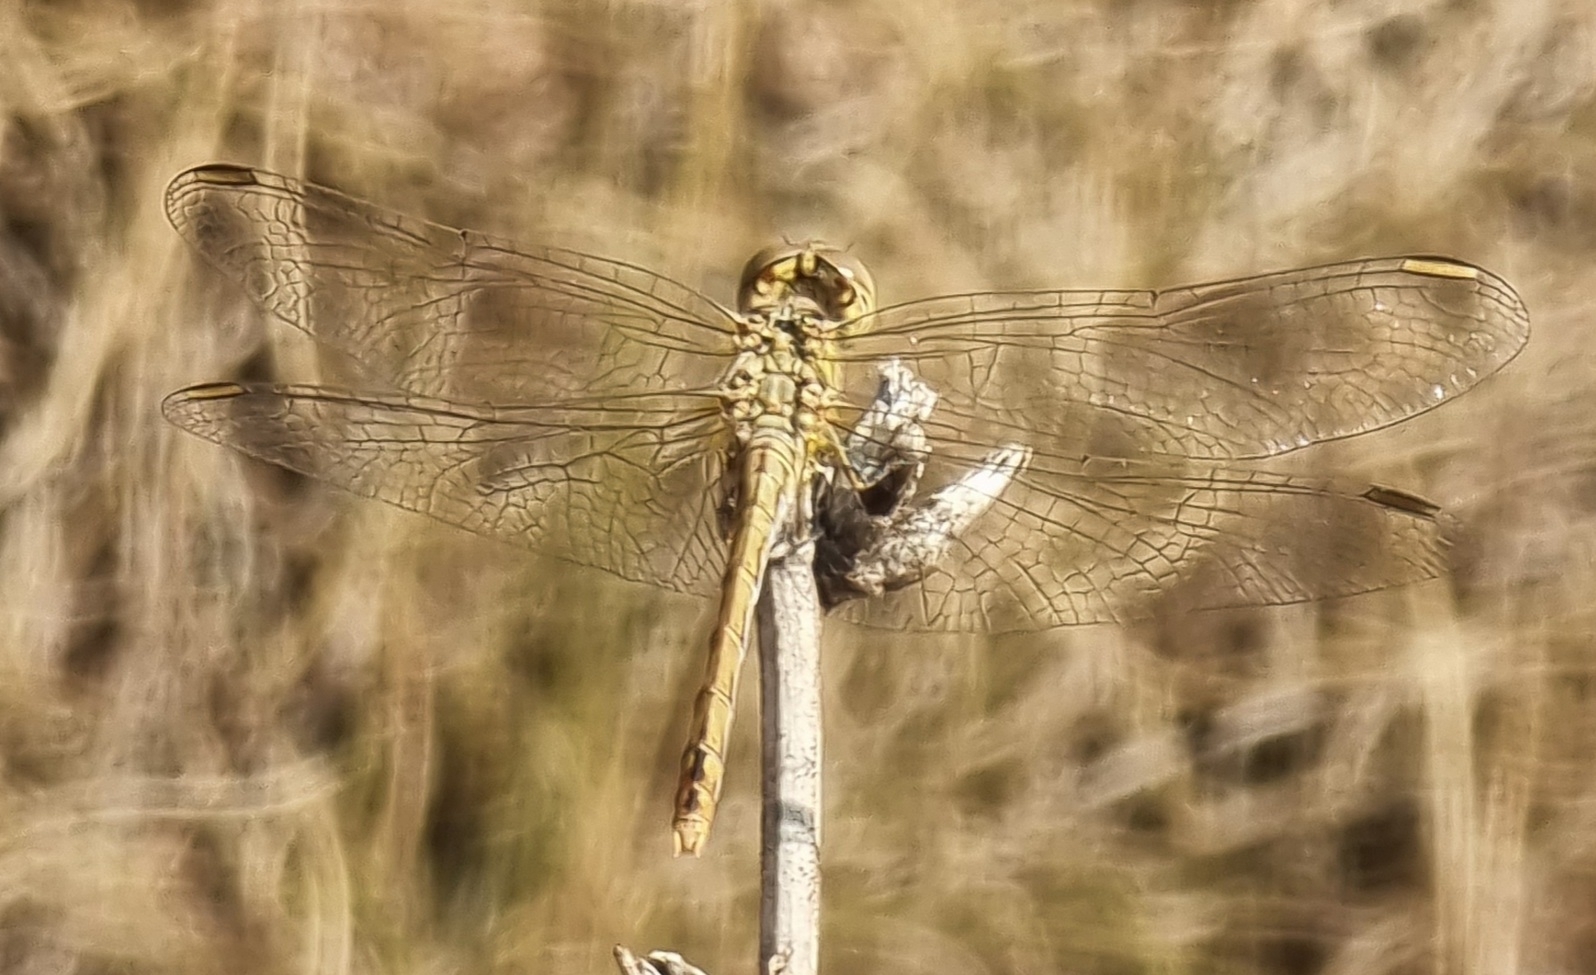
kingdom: Animalia
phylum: Arthropoda
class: Insecta
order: Odonata
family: Libellulidae
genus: Sympetrum
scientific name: Sympetrum meridionale
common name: Southern darter
